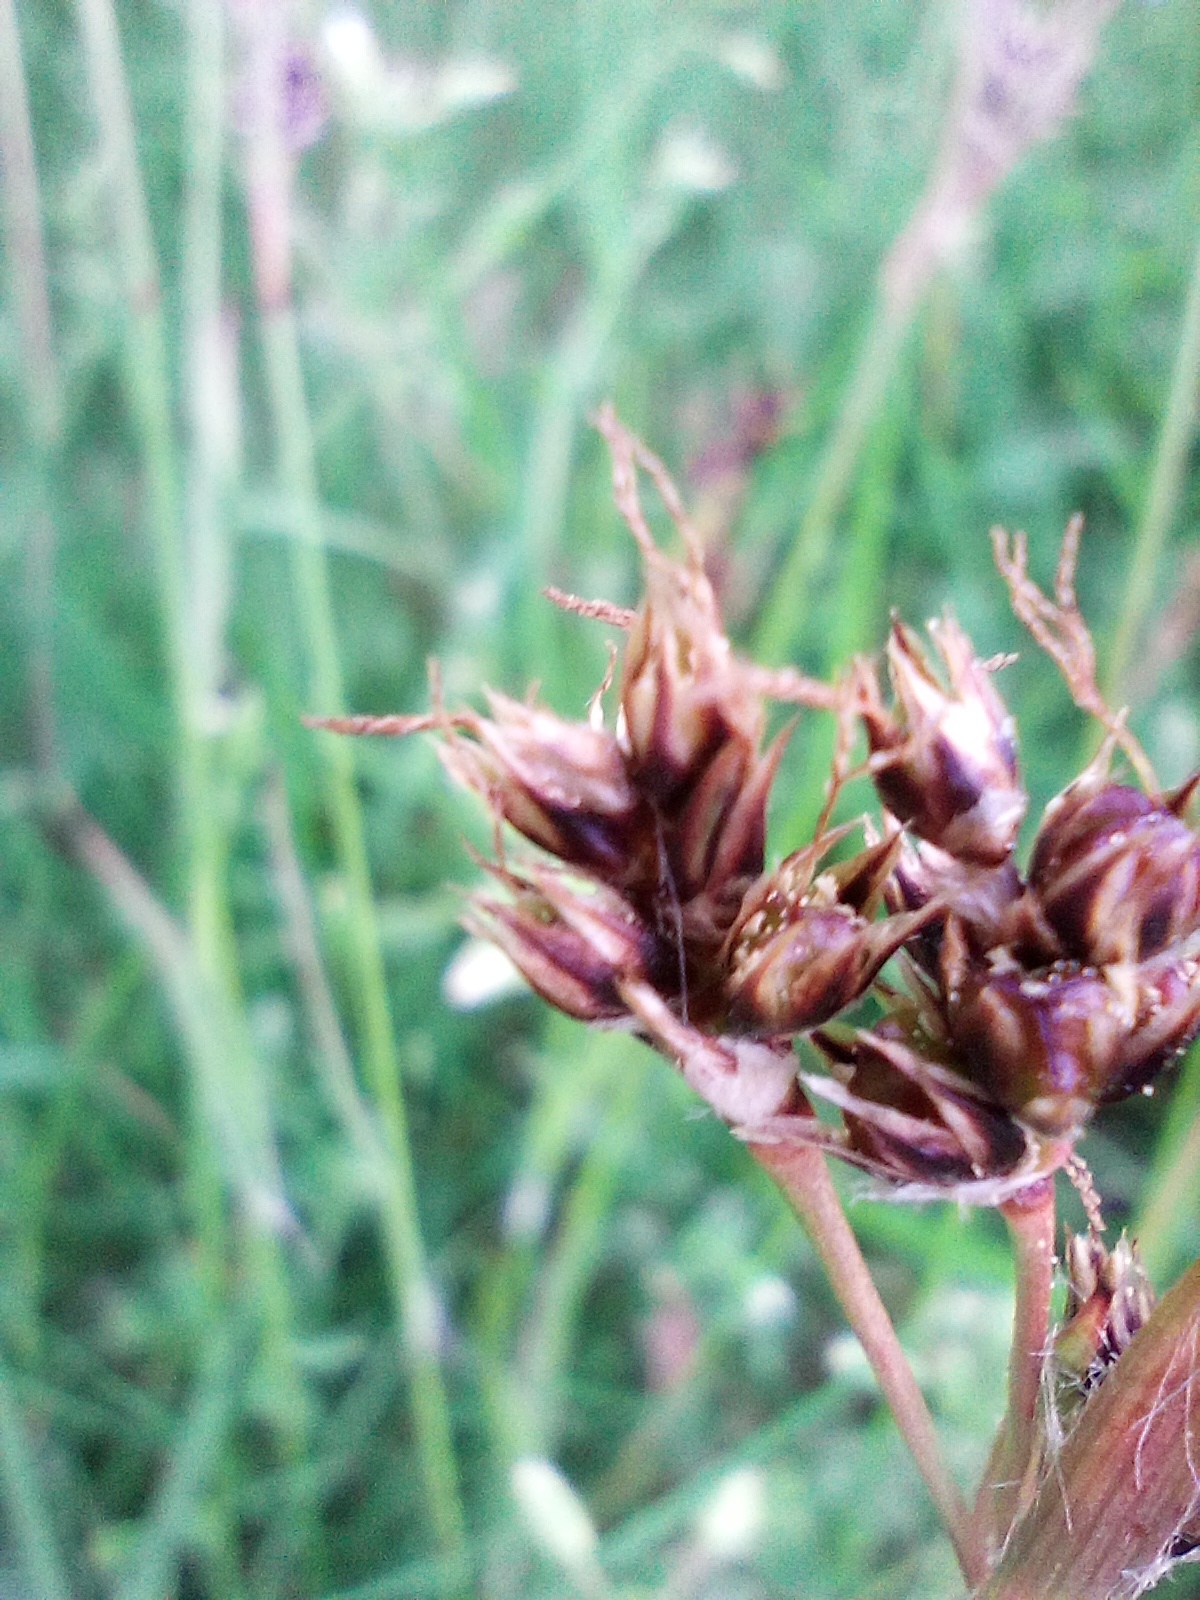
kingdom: Plantae
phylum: Tracheophyta
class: Liliopsida
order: Poales
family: Juncaceae
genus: Luzula
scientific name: Luzula campestris
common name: Field wood-rush
